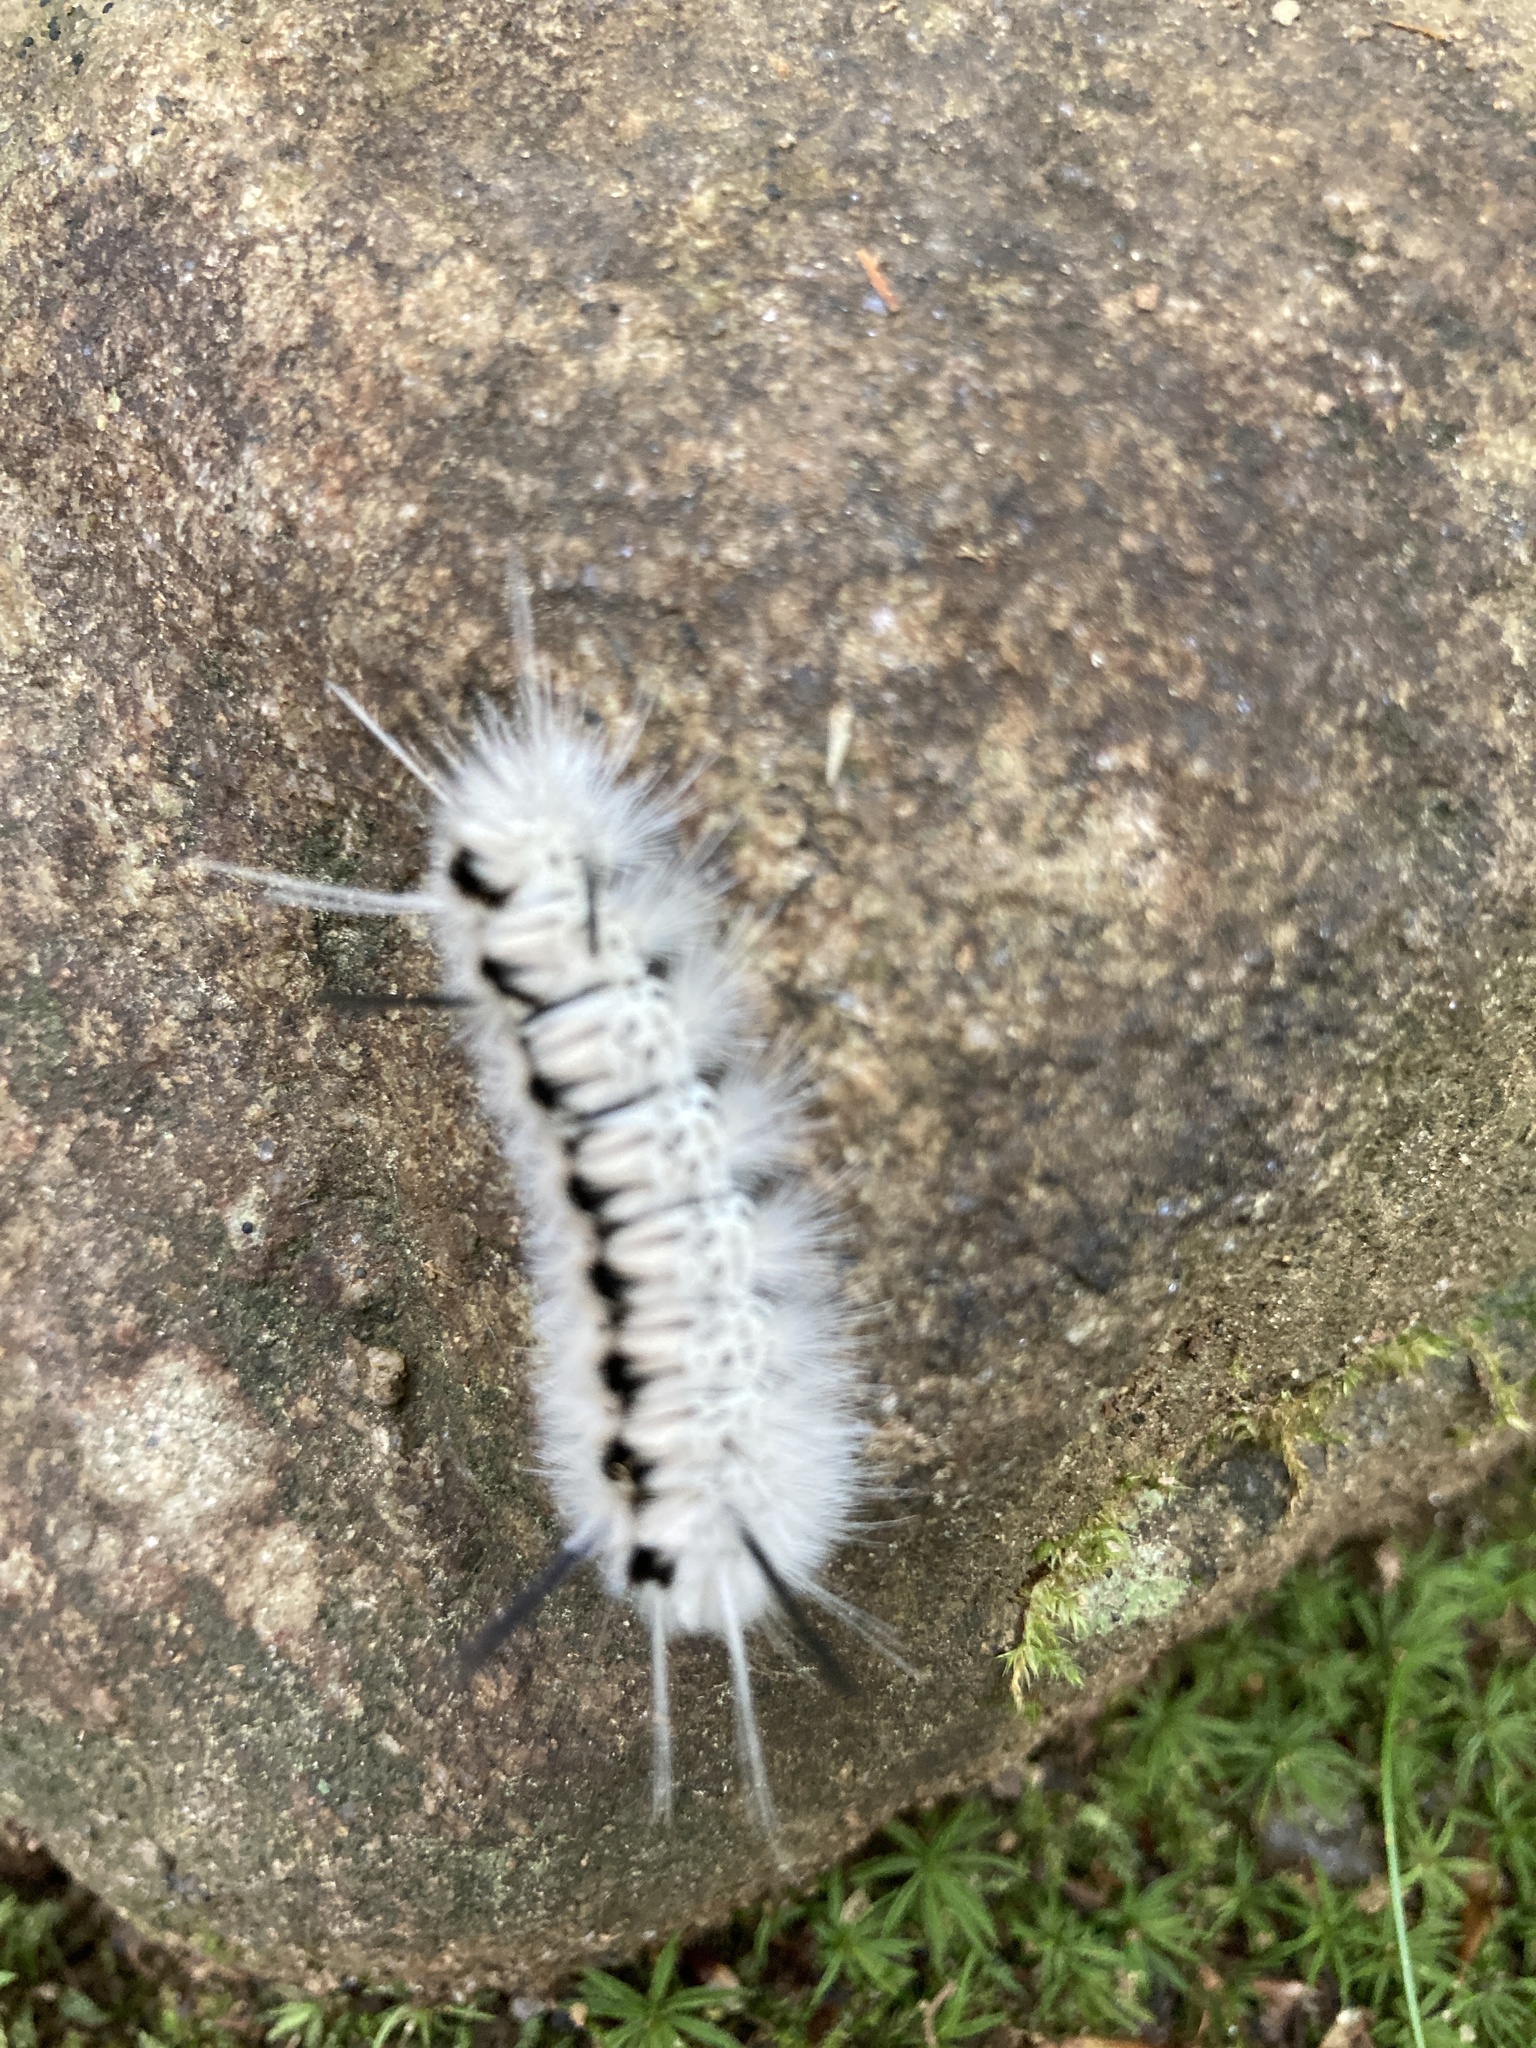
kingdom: Animalia
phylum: Arthropoda
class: Insecta
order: Lepidoptera
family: Erebidae
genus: Lophocampa
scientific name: Lophocampa caryae
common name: Hickory tussock moth
